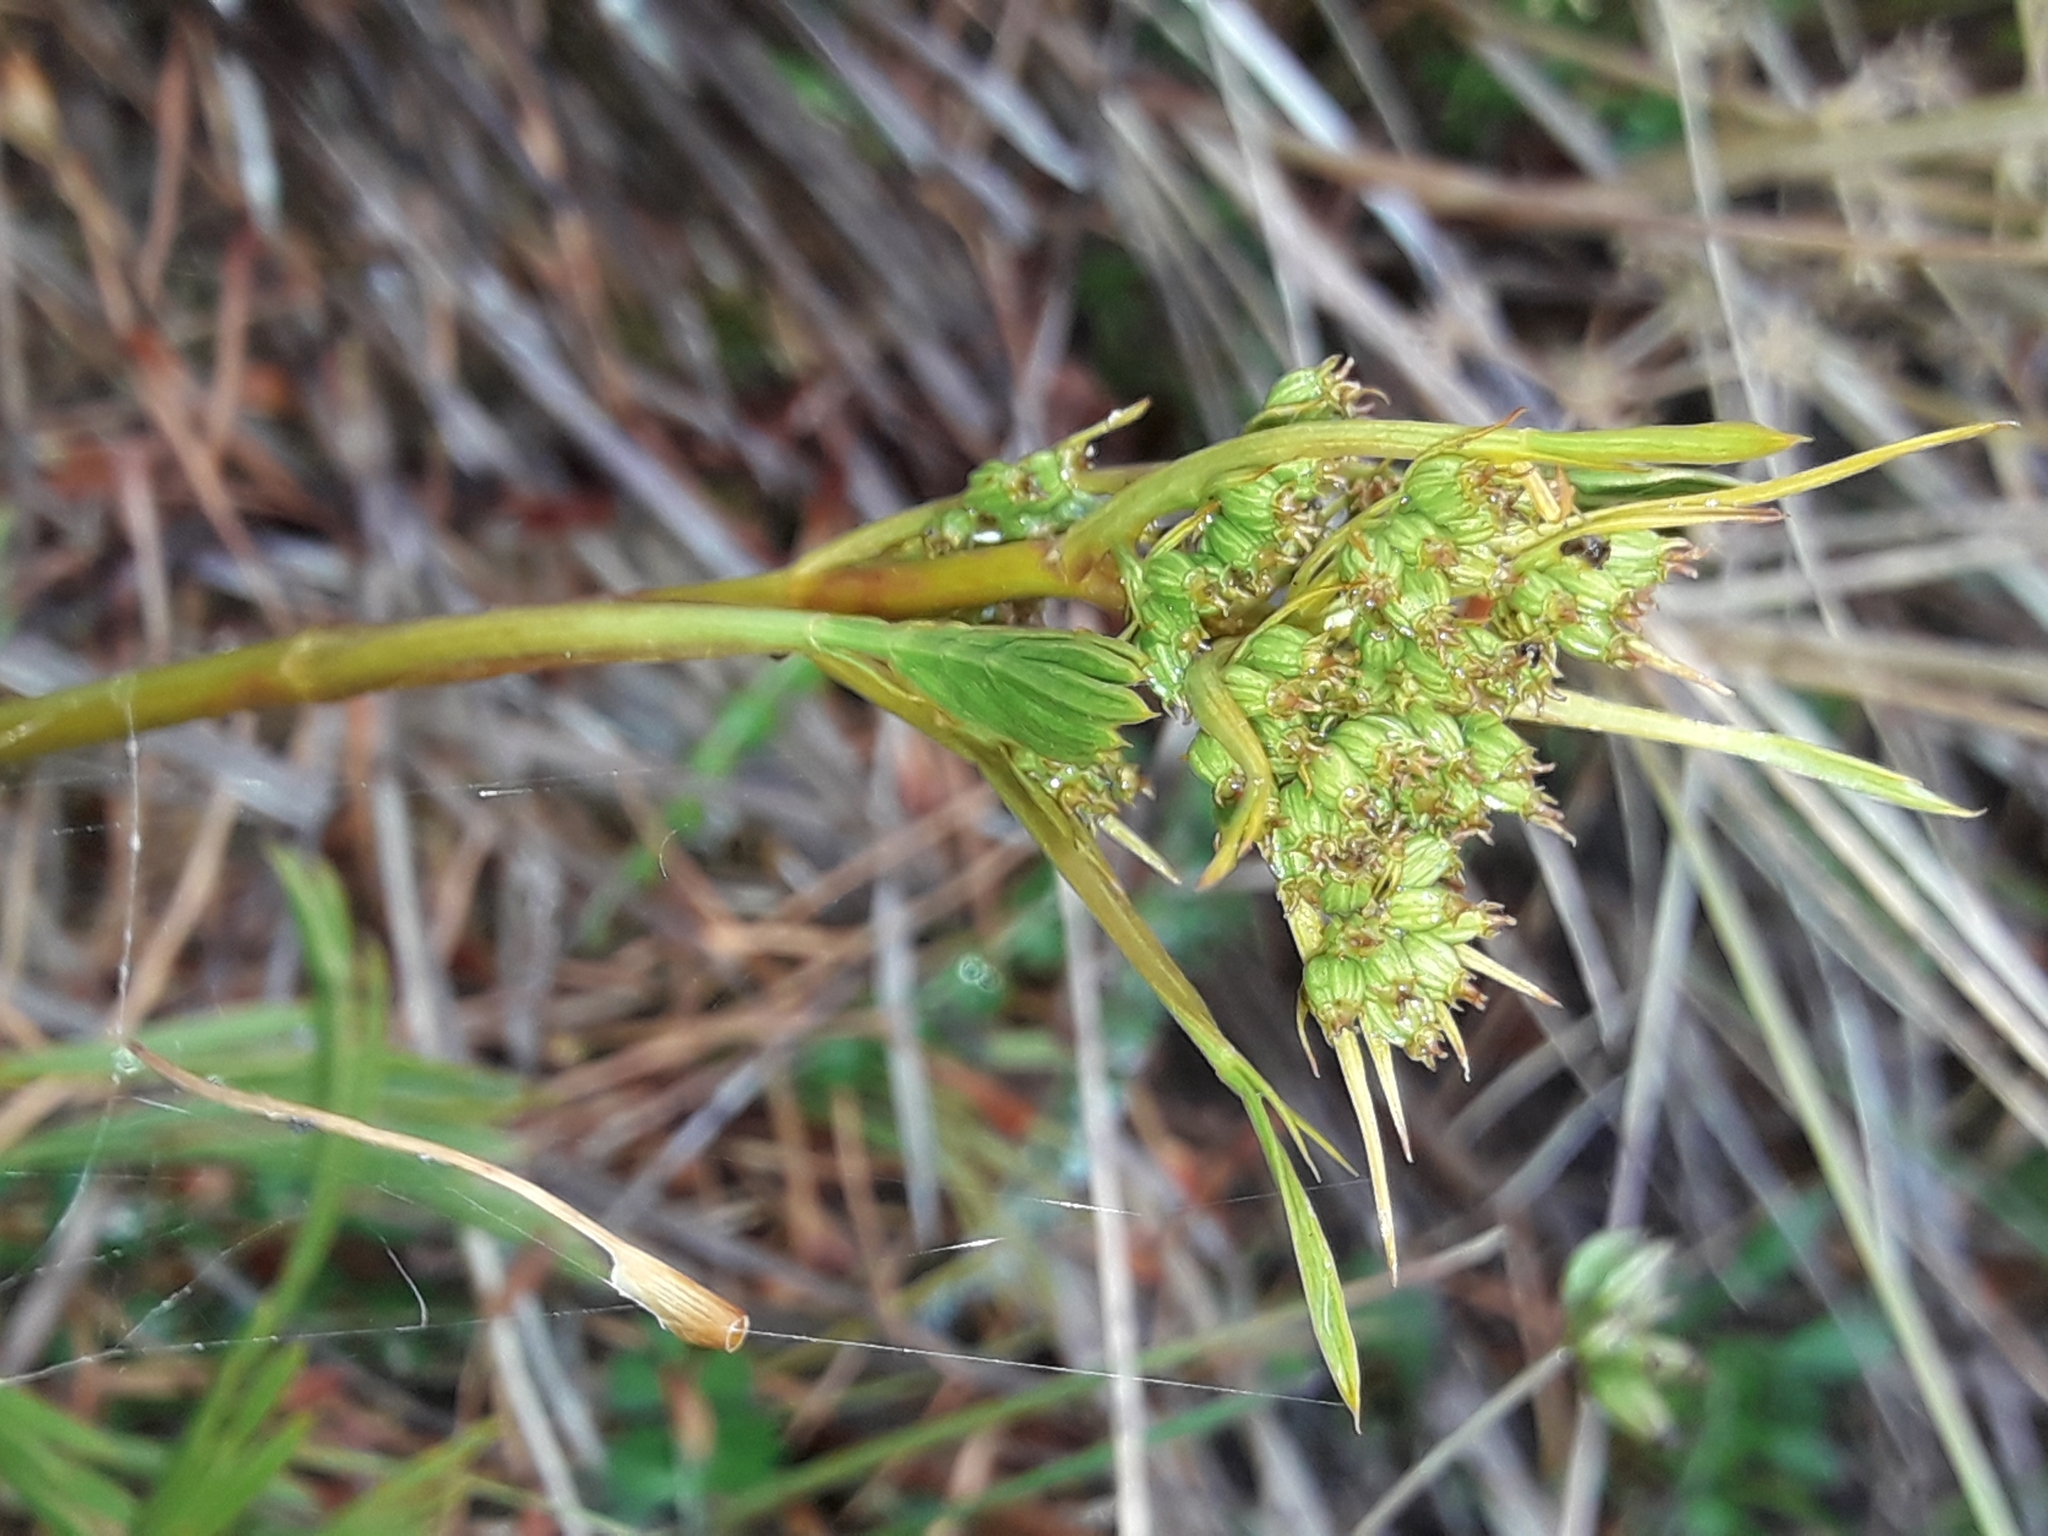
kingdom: Plantae
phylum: Tracheophyta
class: Magnoliopsida
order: Apiales
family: Apiaceae
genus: Aciphylla
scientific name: Aciphylla monroi
